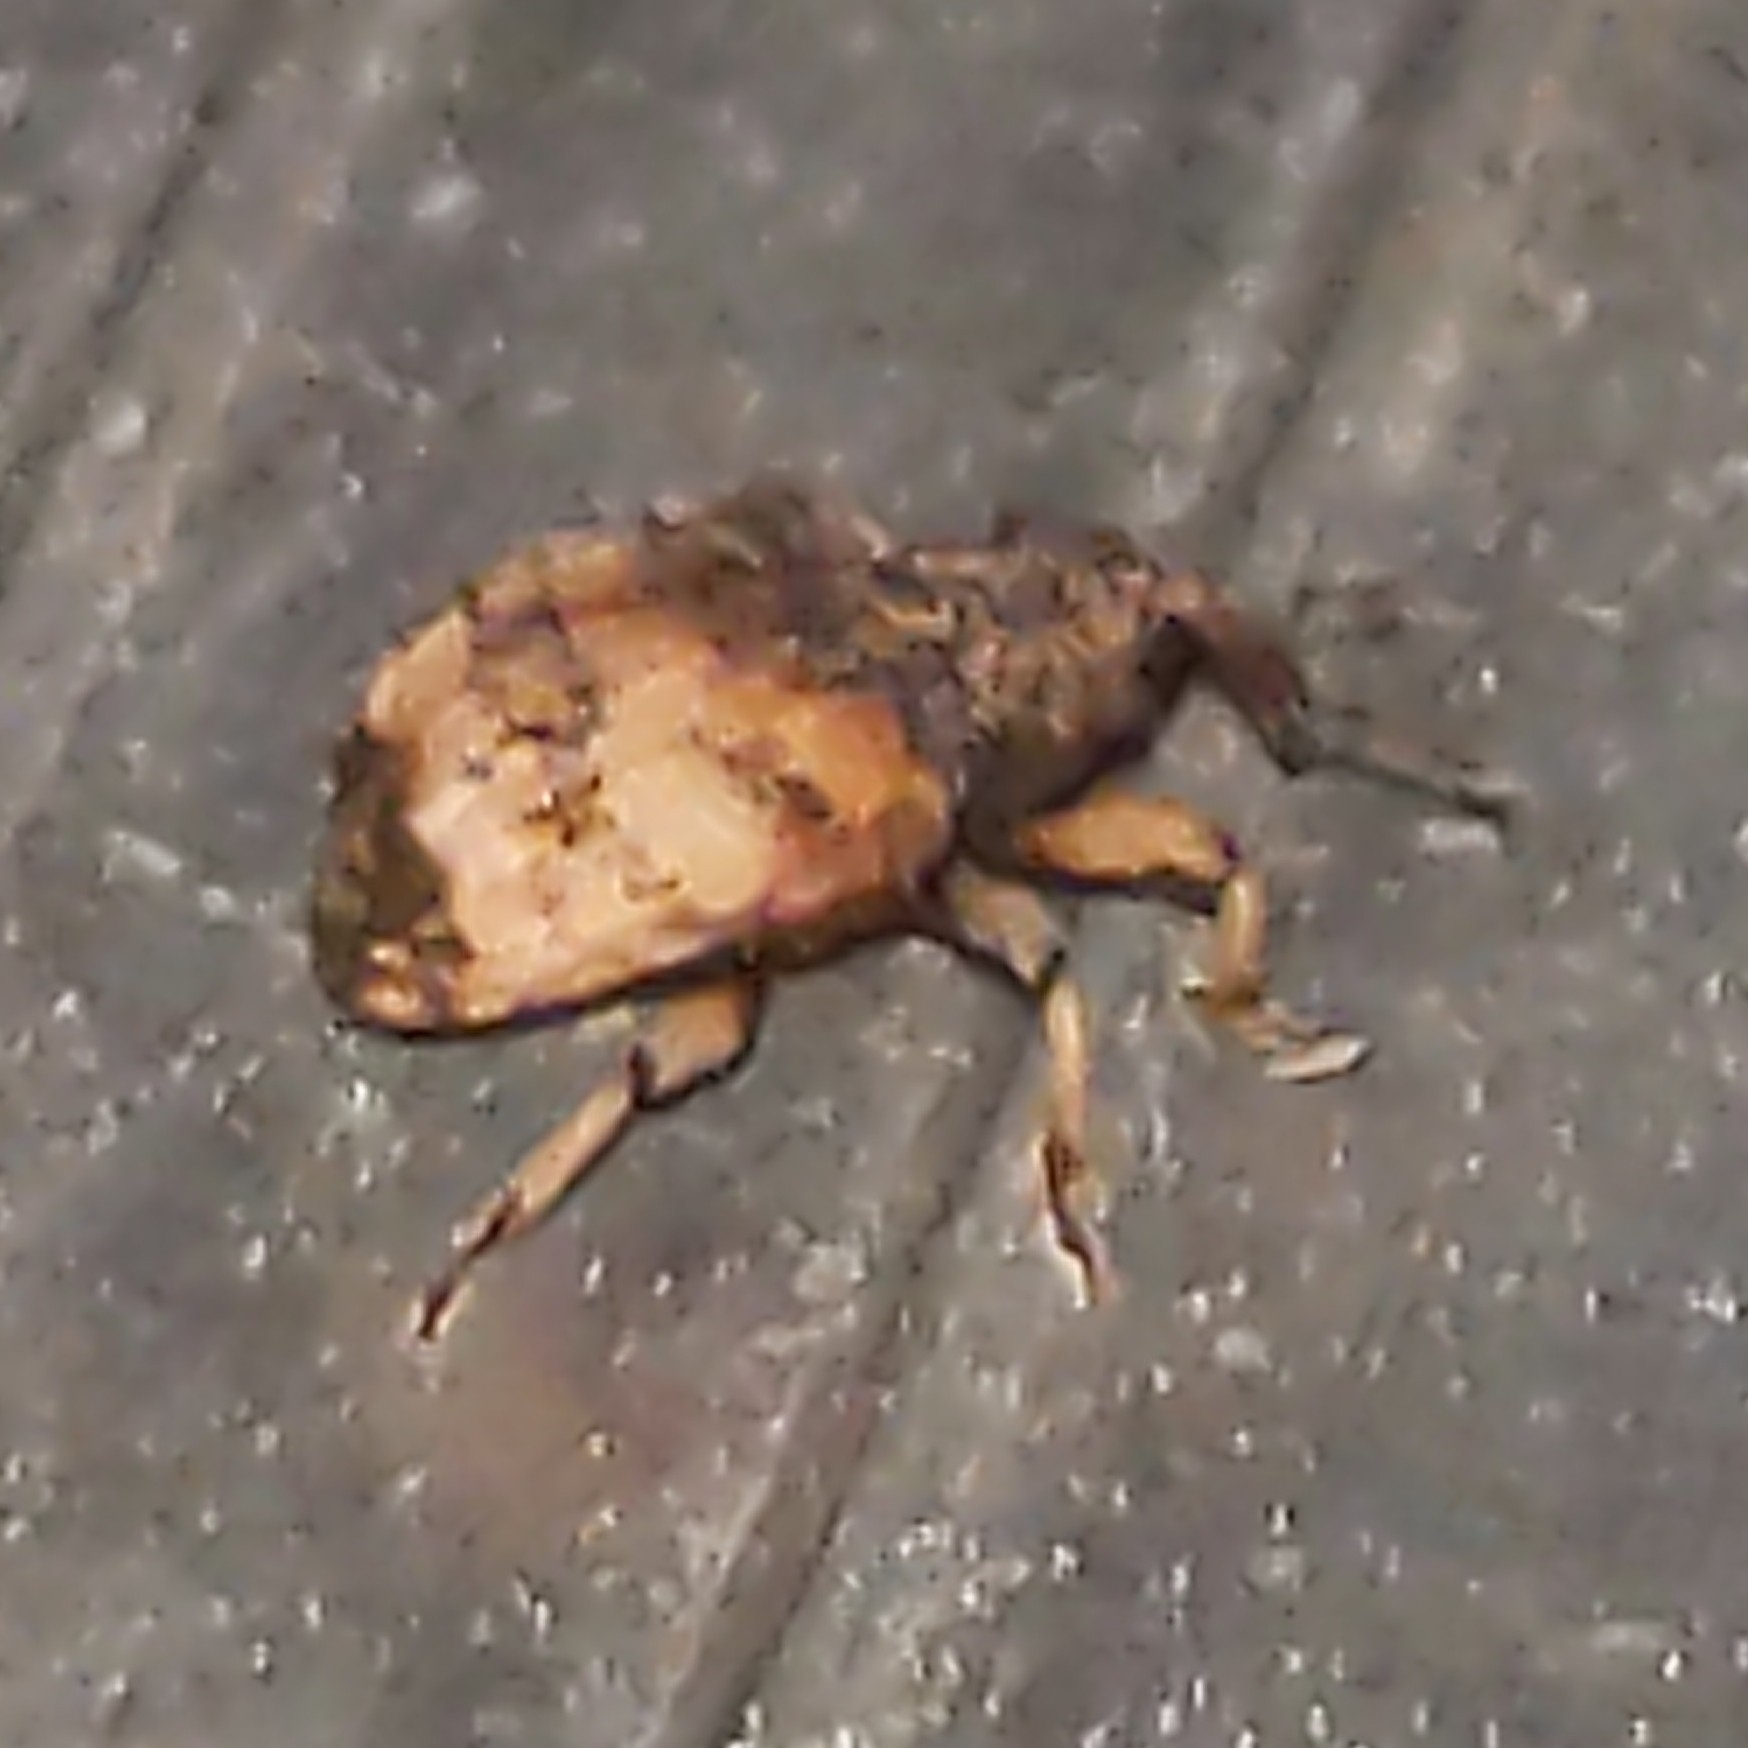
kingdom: Animalia
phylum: Arthropoda
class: Insecta
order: Coleoptera
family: Curculionidae
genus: Phyrdenus
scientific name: Phyrdenus divergens
